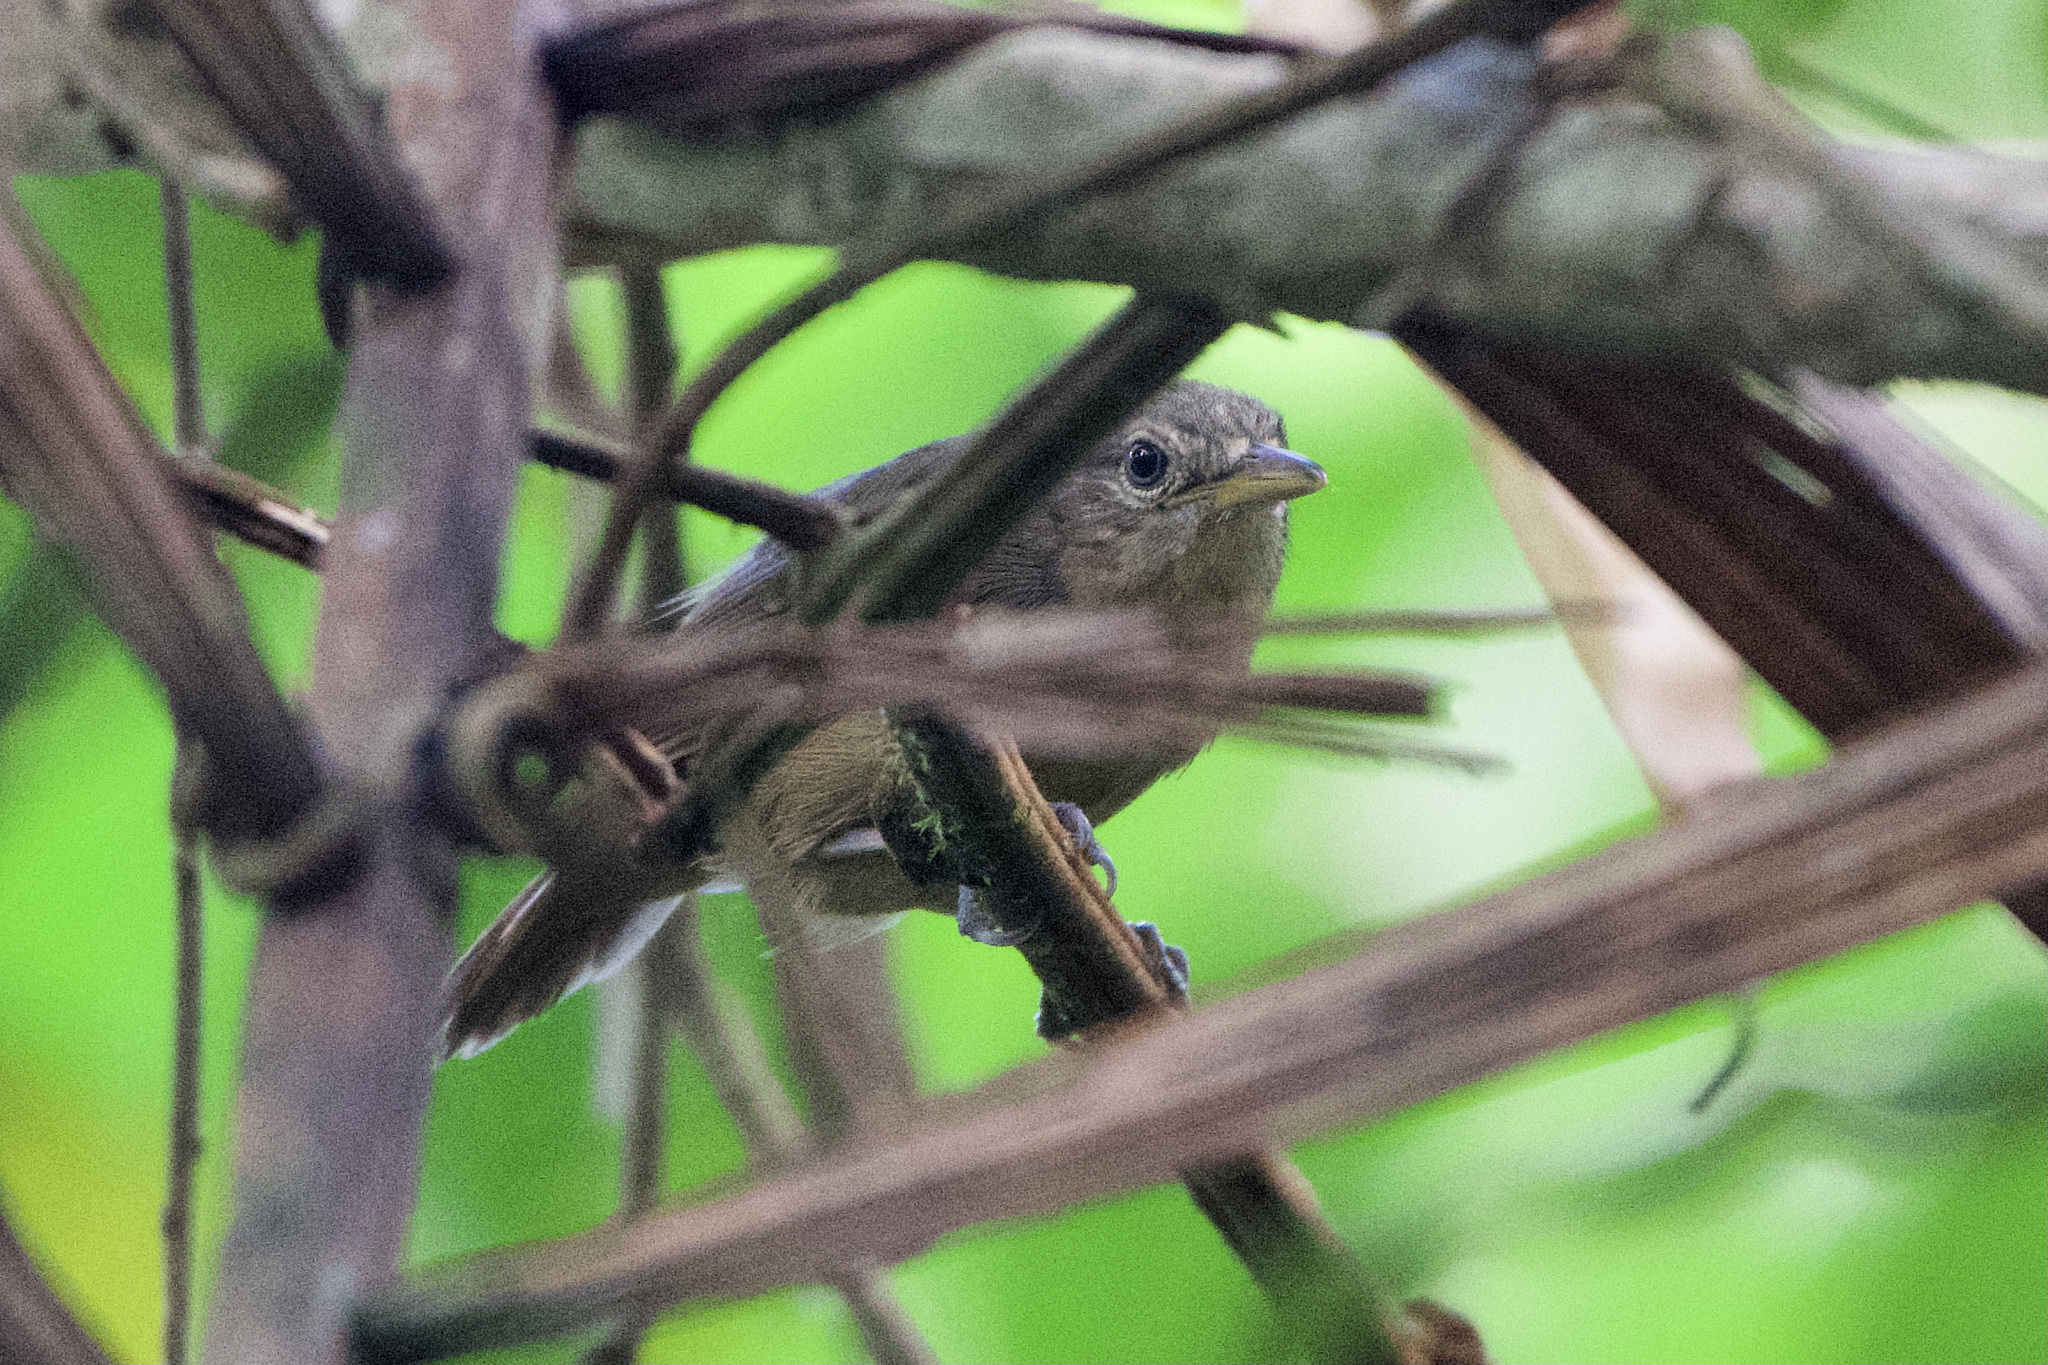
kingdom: Animalia
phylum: Chordata
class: Aves
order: Passeriformes
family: Thamnophilidae
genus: Thamnophilus
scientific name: Thamnophilus atrinucha
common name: Black-crowned antshrike
